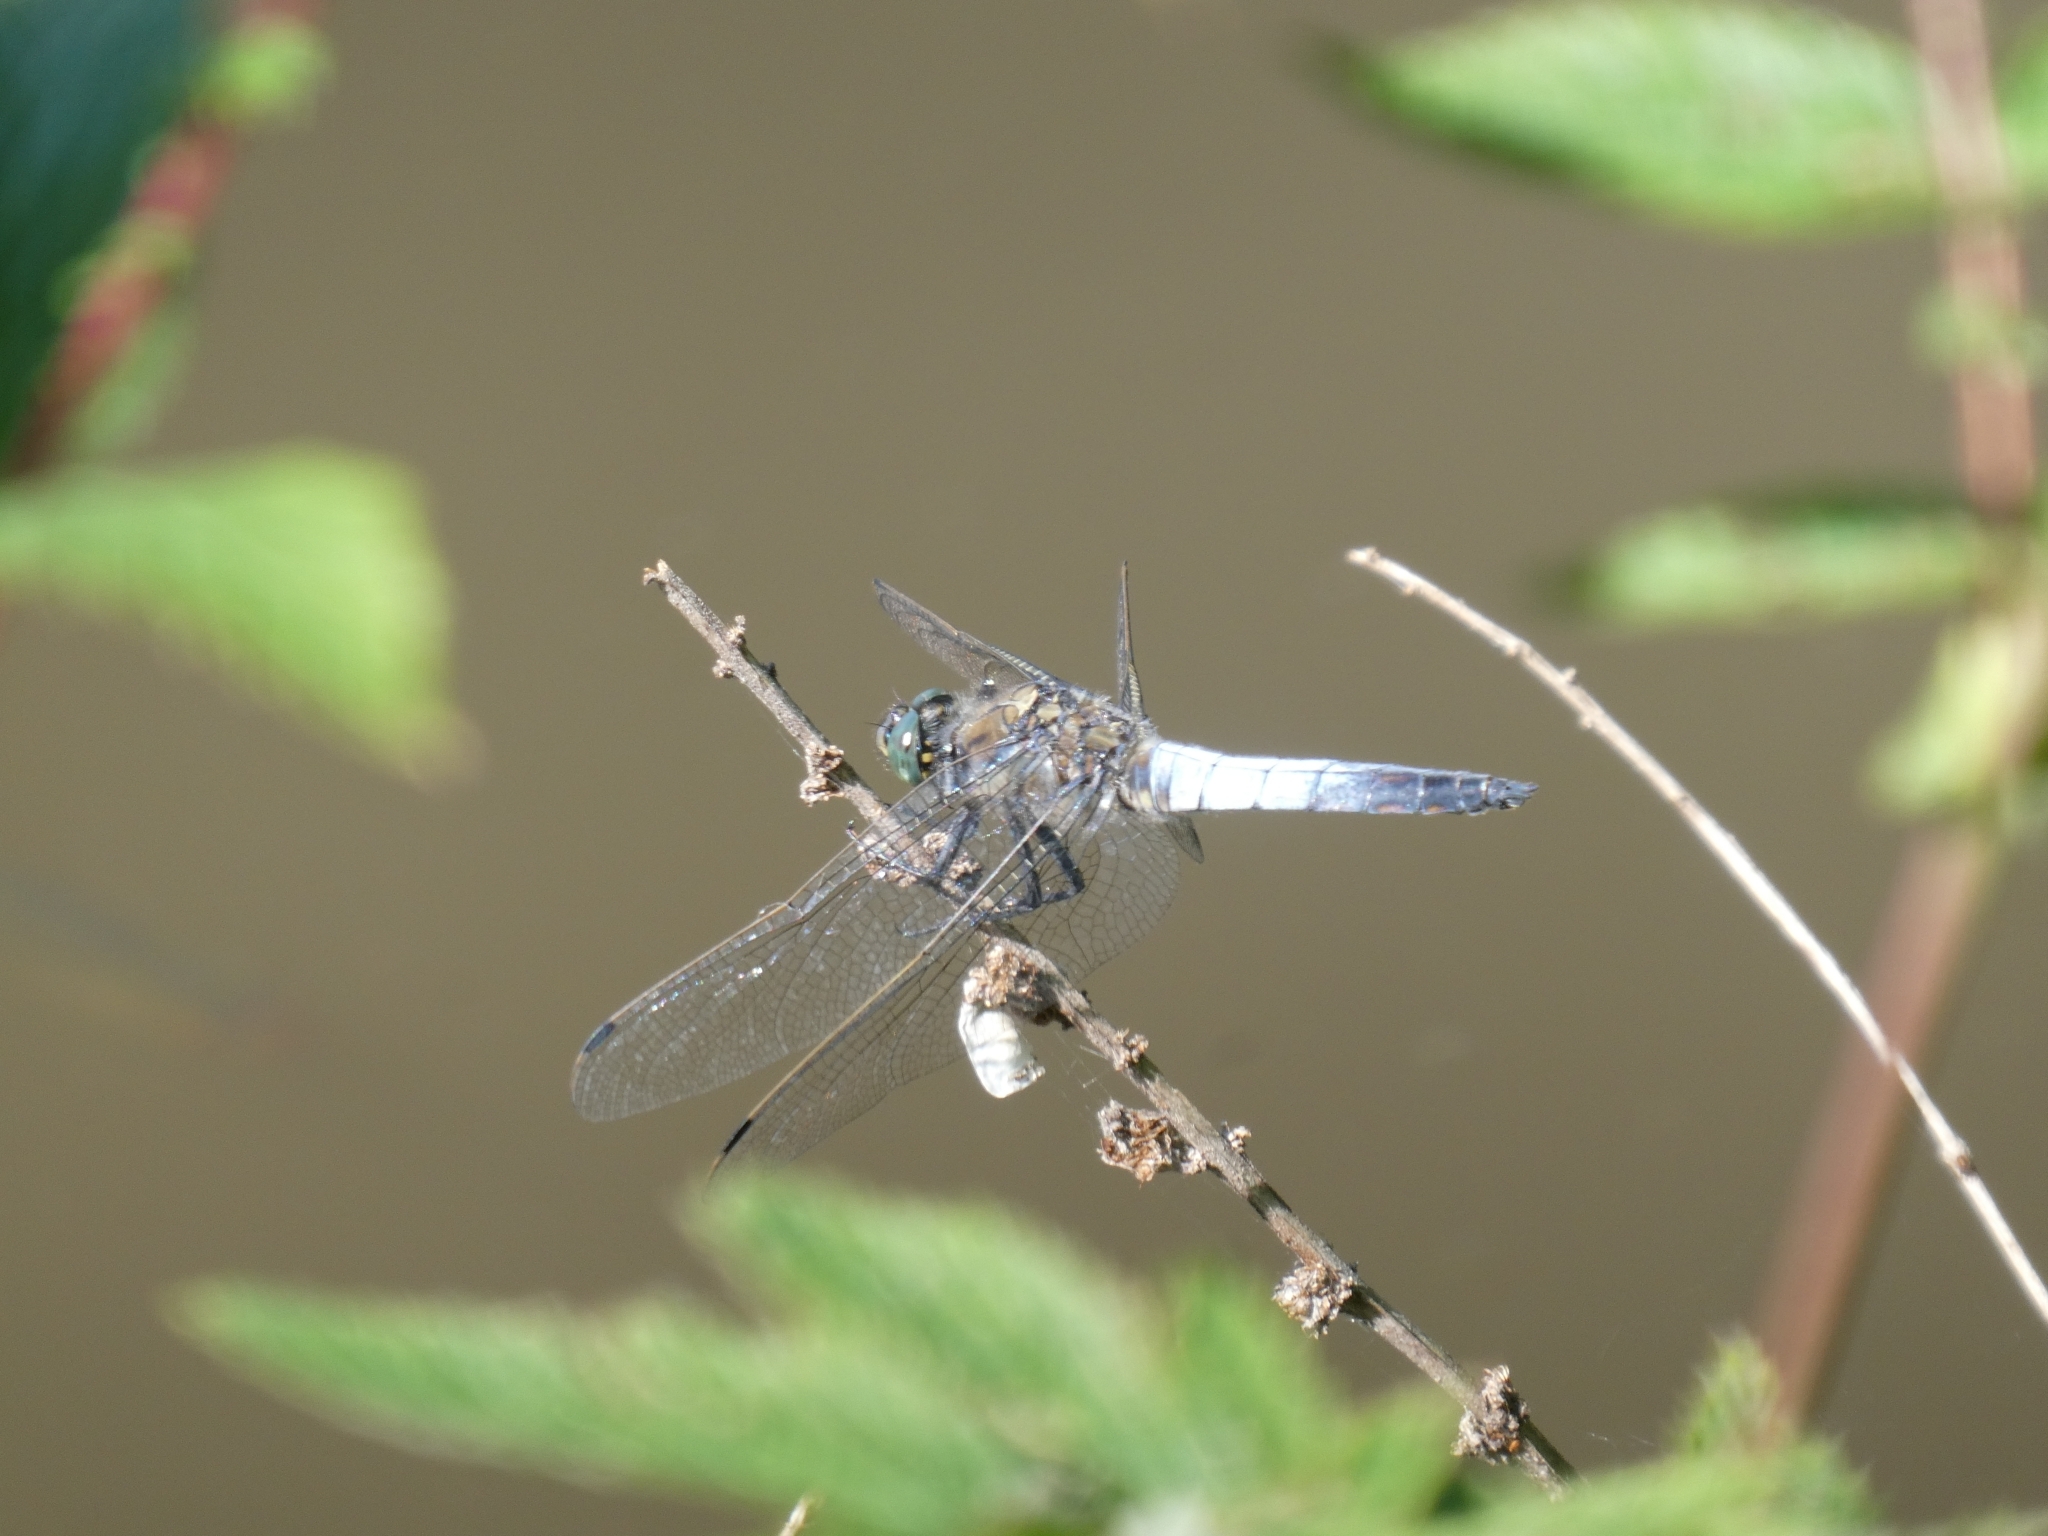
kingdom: Animalia
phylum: Arthropoda
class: Insecta
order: Odonata
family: Libellulidae
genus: Orthetrum
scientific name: Orthetrum cancellatum
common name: Black-tailed skimmer
